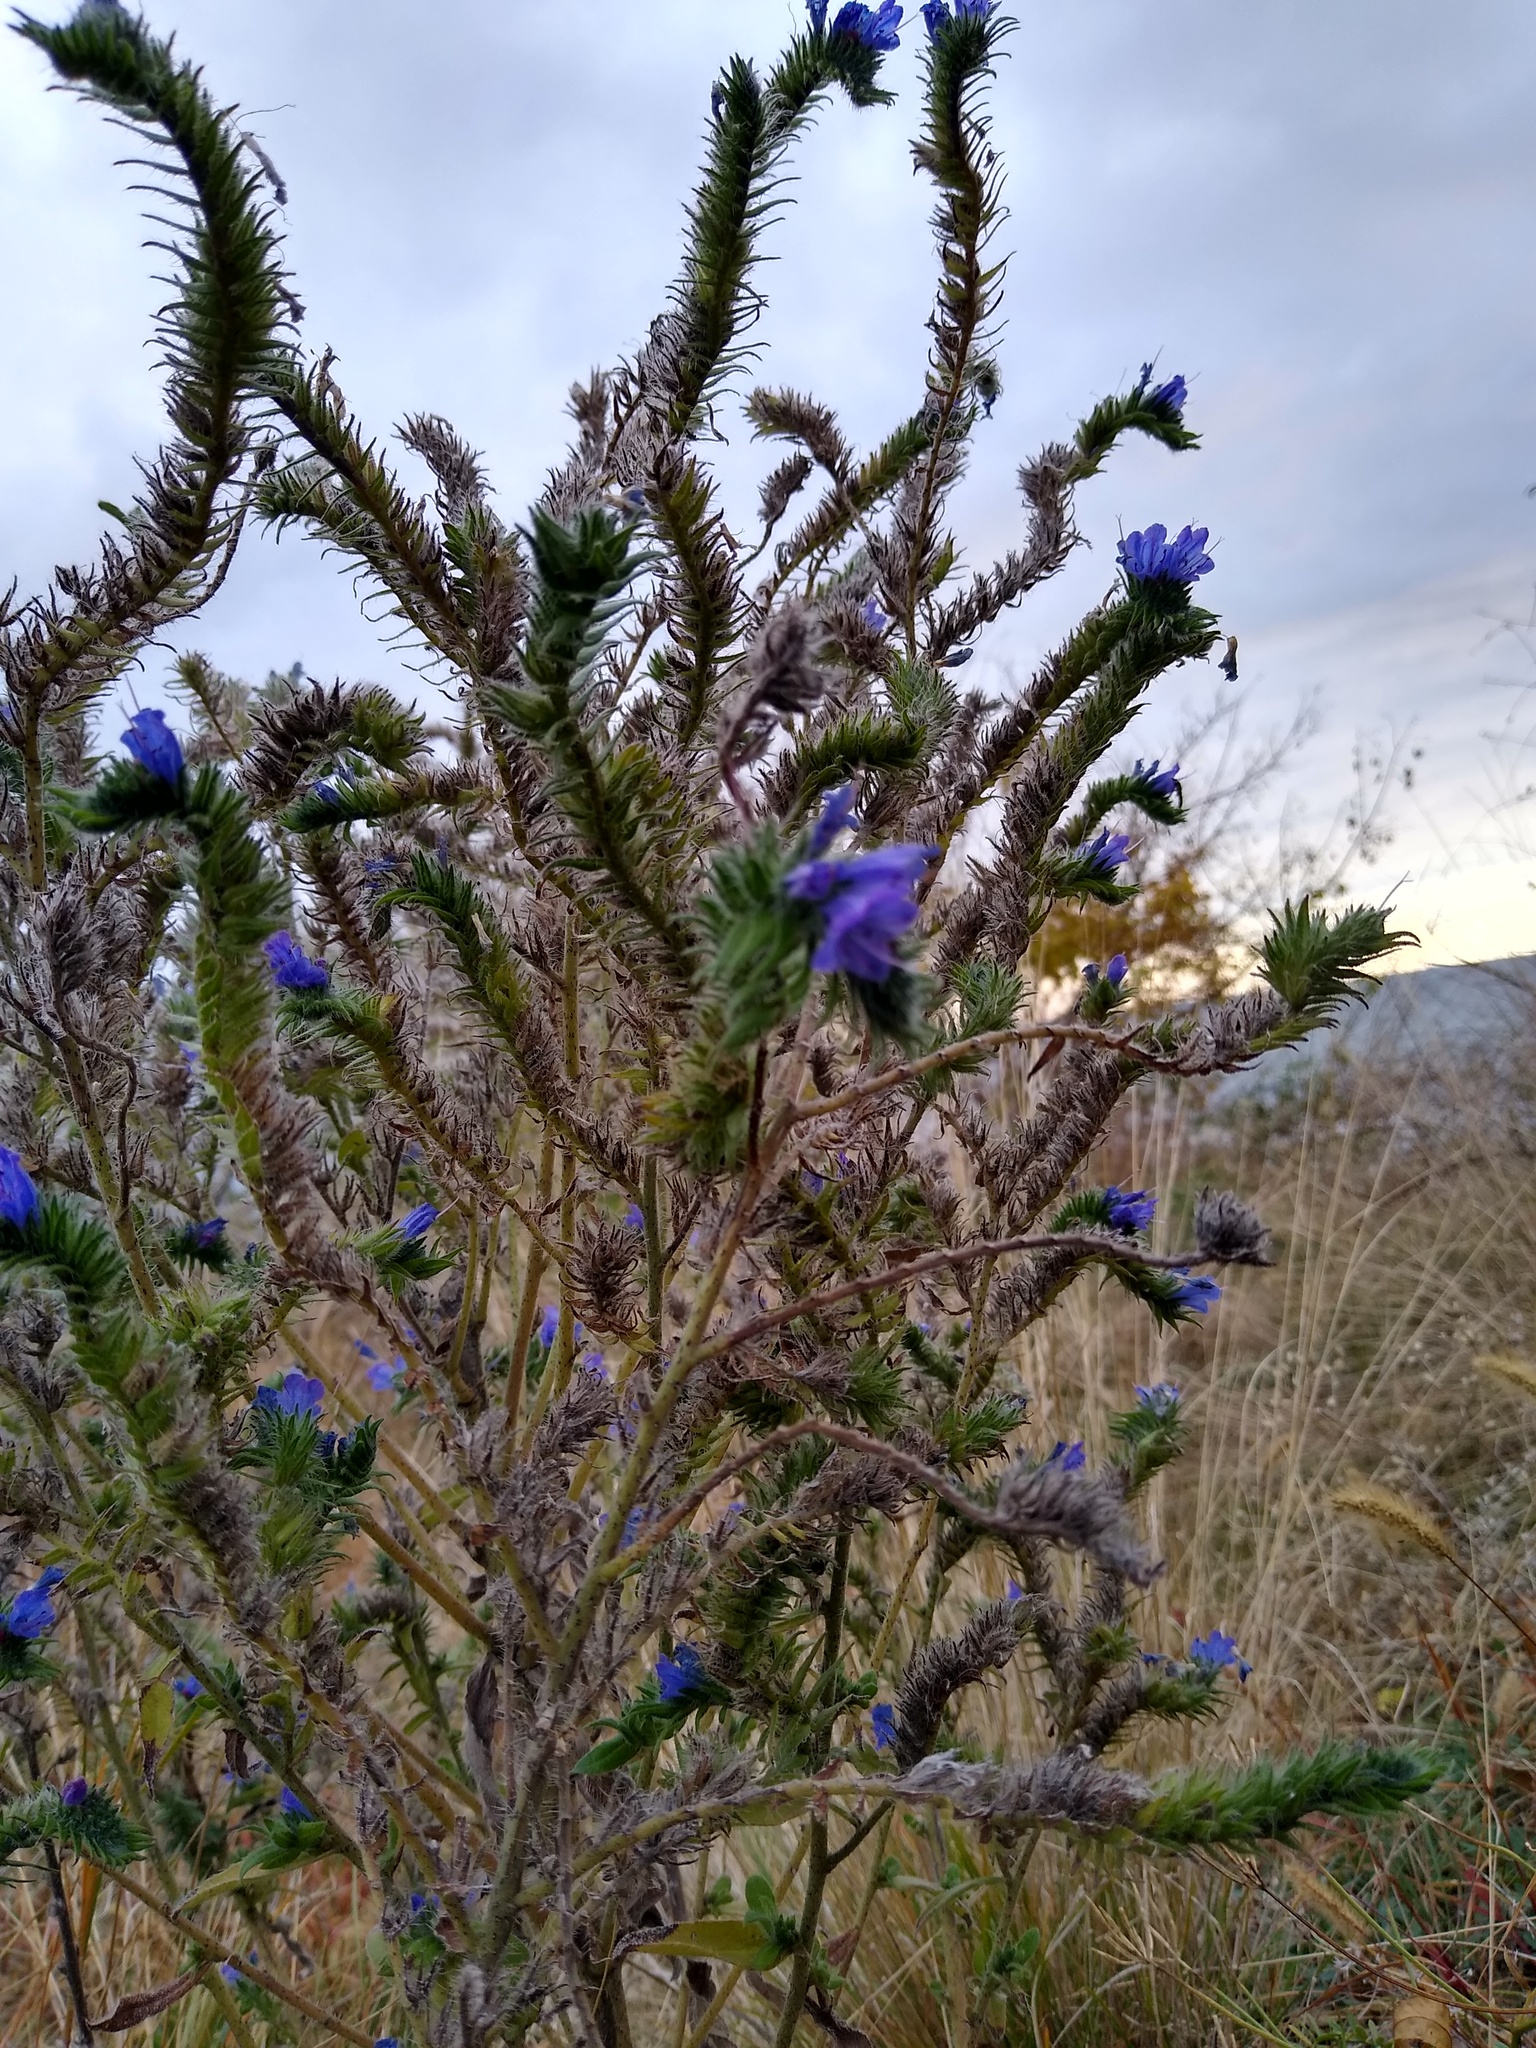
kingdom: Plantae
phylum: Tracheophyta
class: Magnoliopsida
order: Boraginales
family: Boraginaceae
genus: Echium
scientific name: Echium vulgare
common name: Common viper's bugloss
